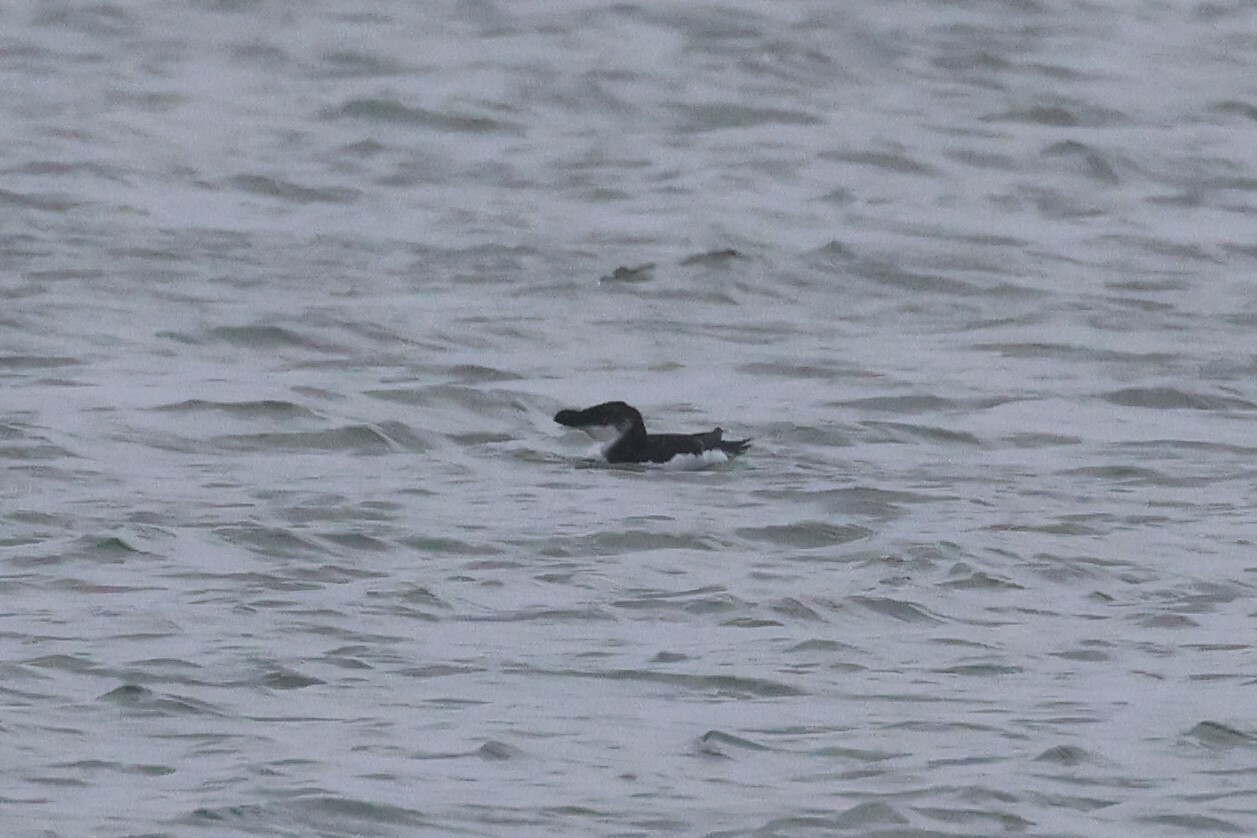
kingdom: Animalia
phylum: Chordata
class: Aves
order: Charadriiformes
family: Alcidae
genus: Alca
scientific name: Alca torda
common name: Razorbill
